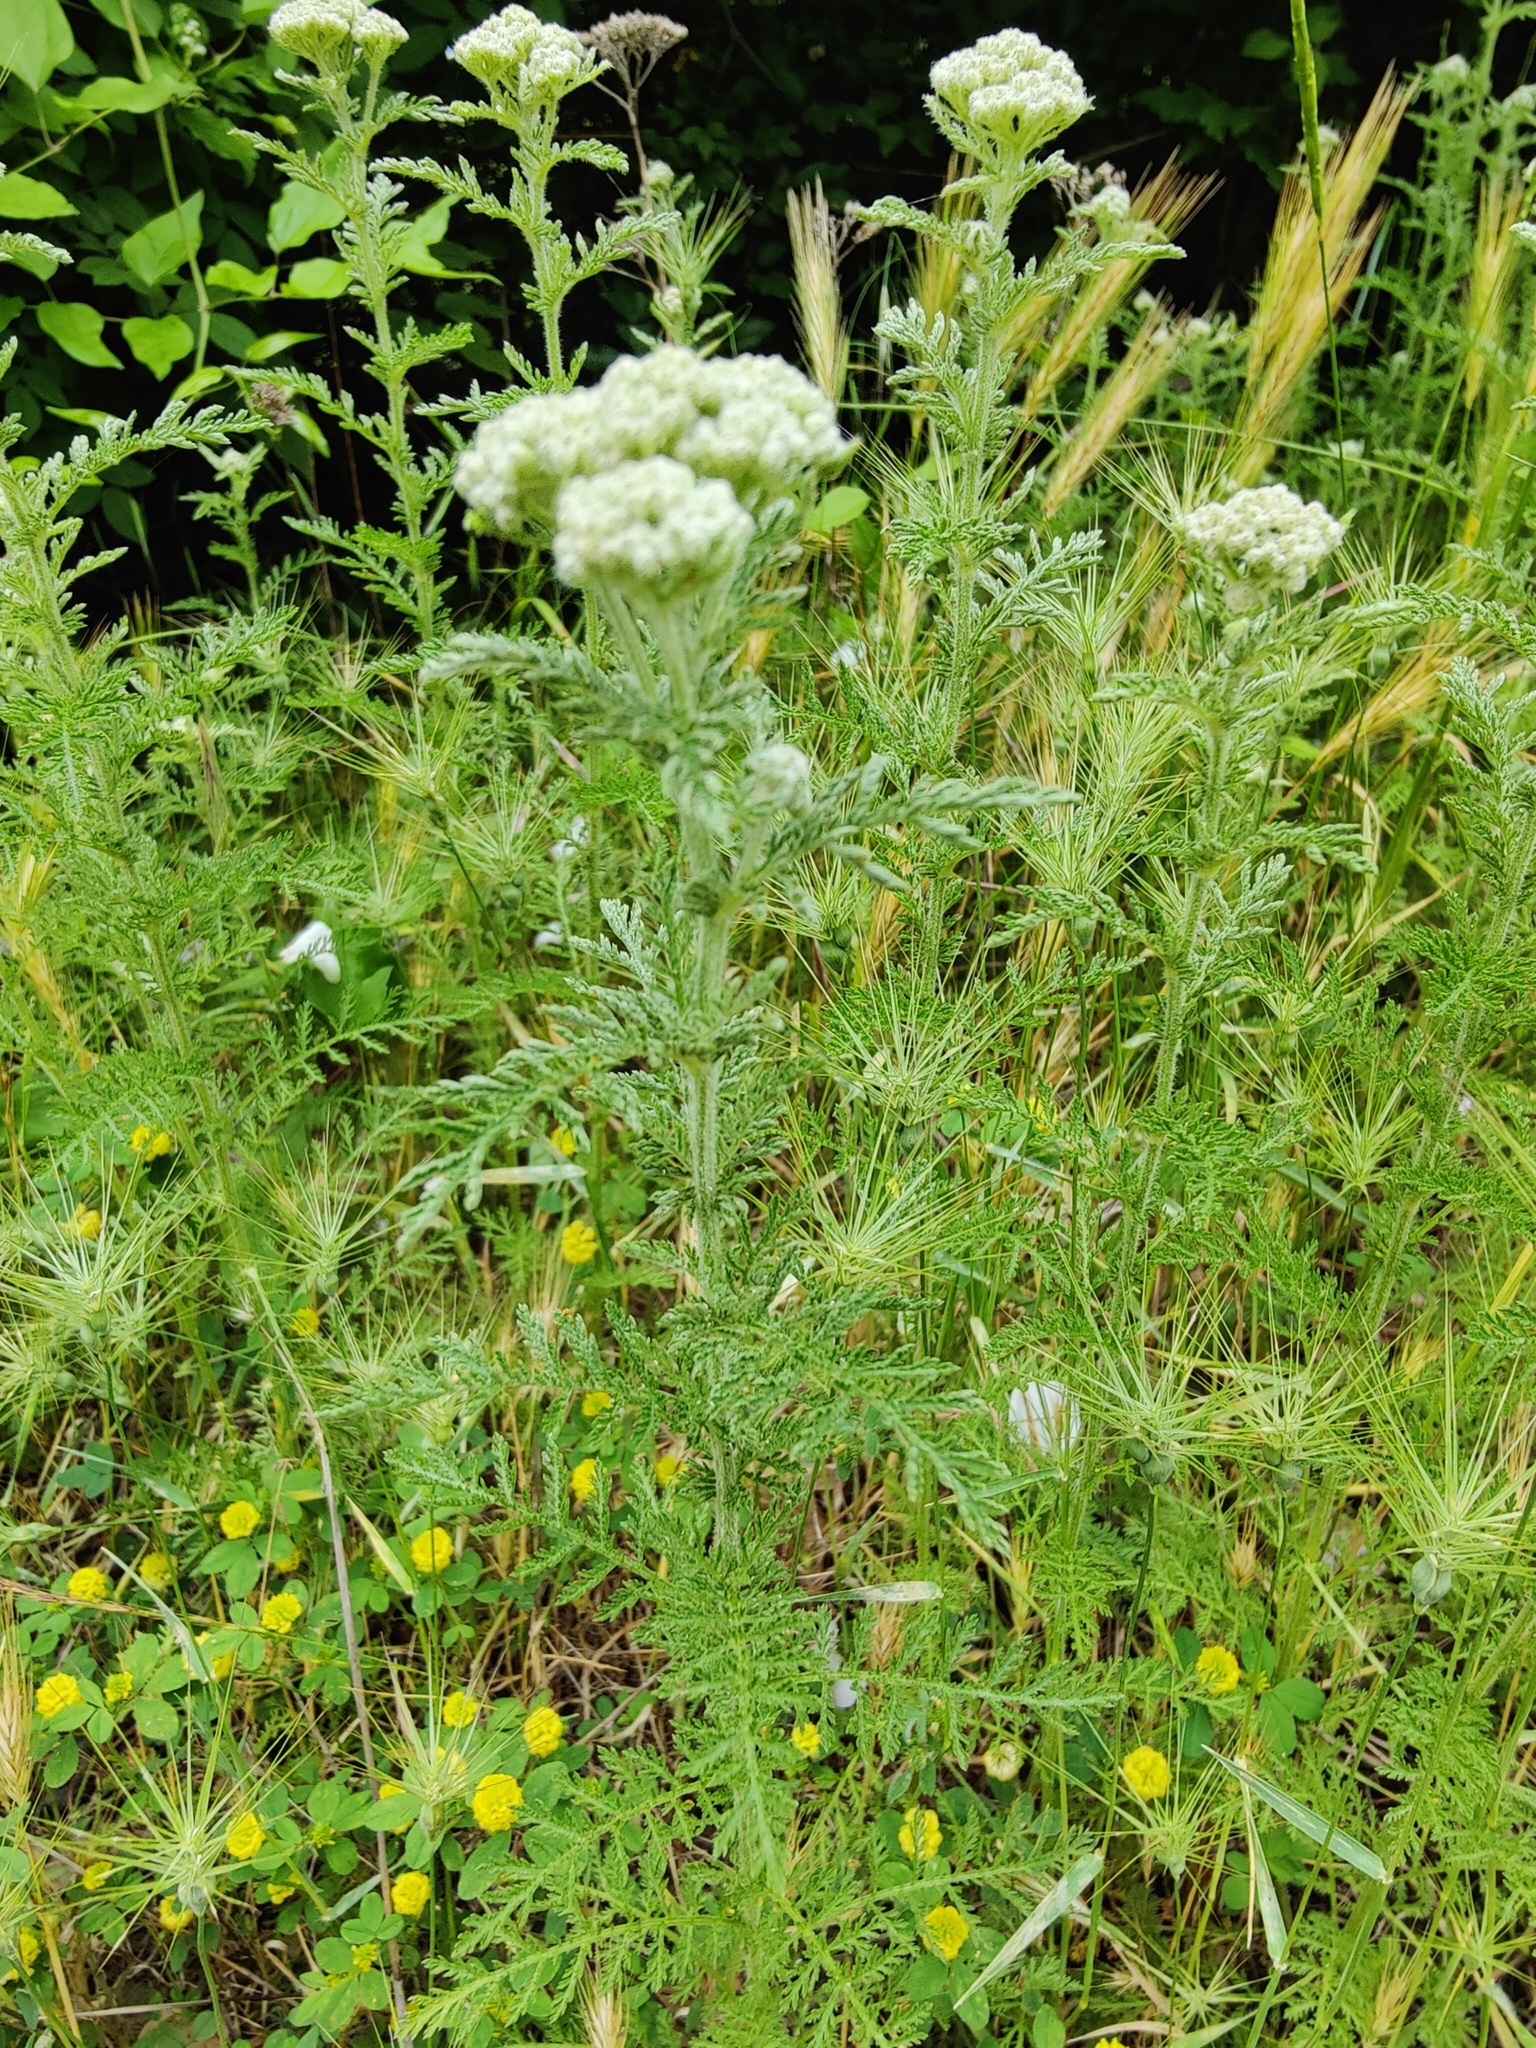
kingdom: Plantae
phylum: Tracheophyta
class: Magnoliopsida
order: Asterales
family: Asteraceae
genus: Achillea
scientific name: Achillea nobilis
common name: Noble yarrow
